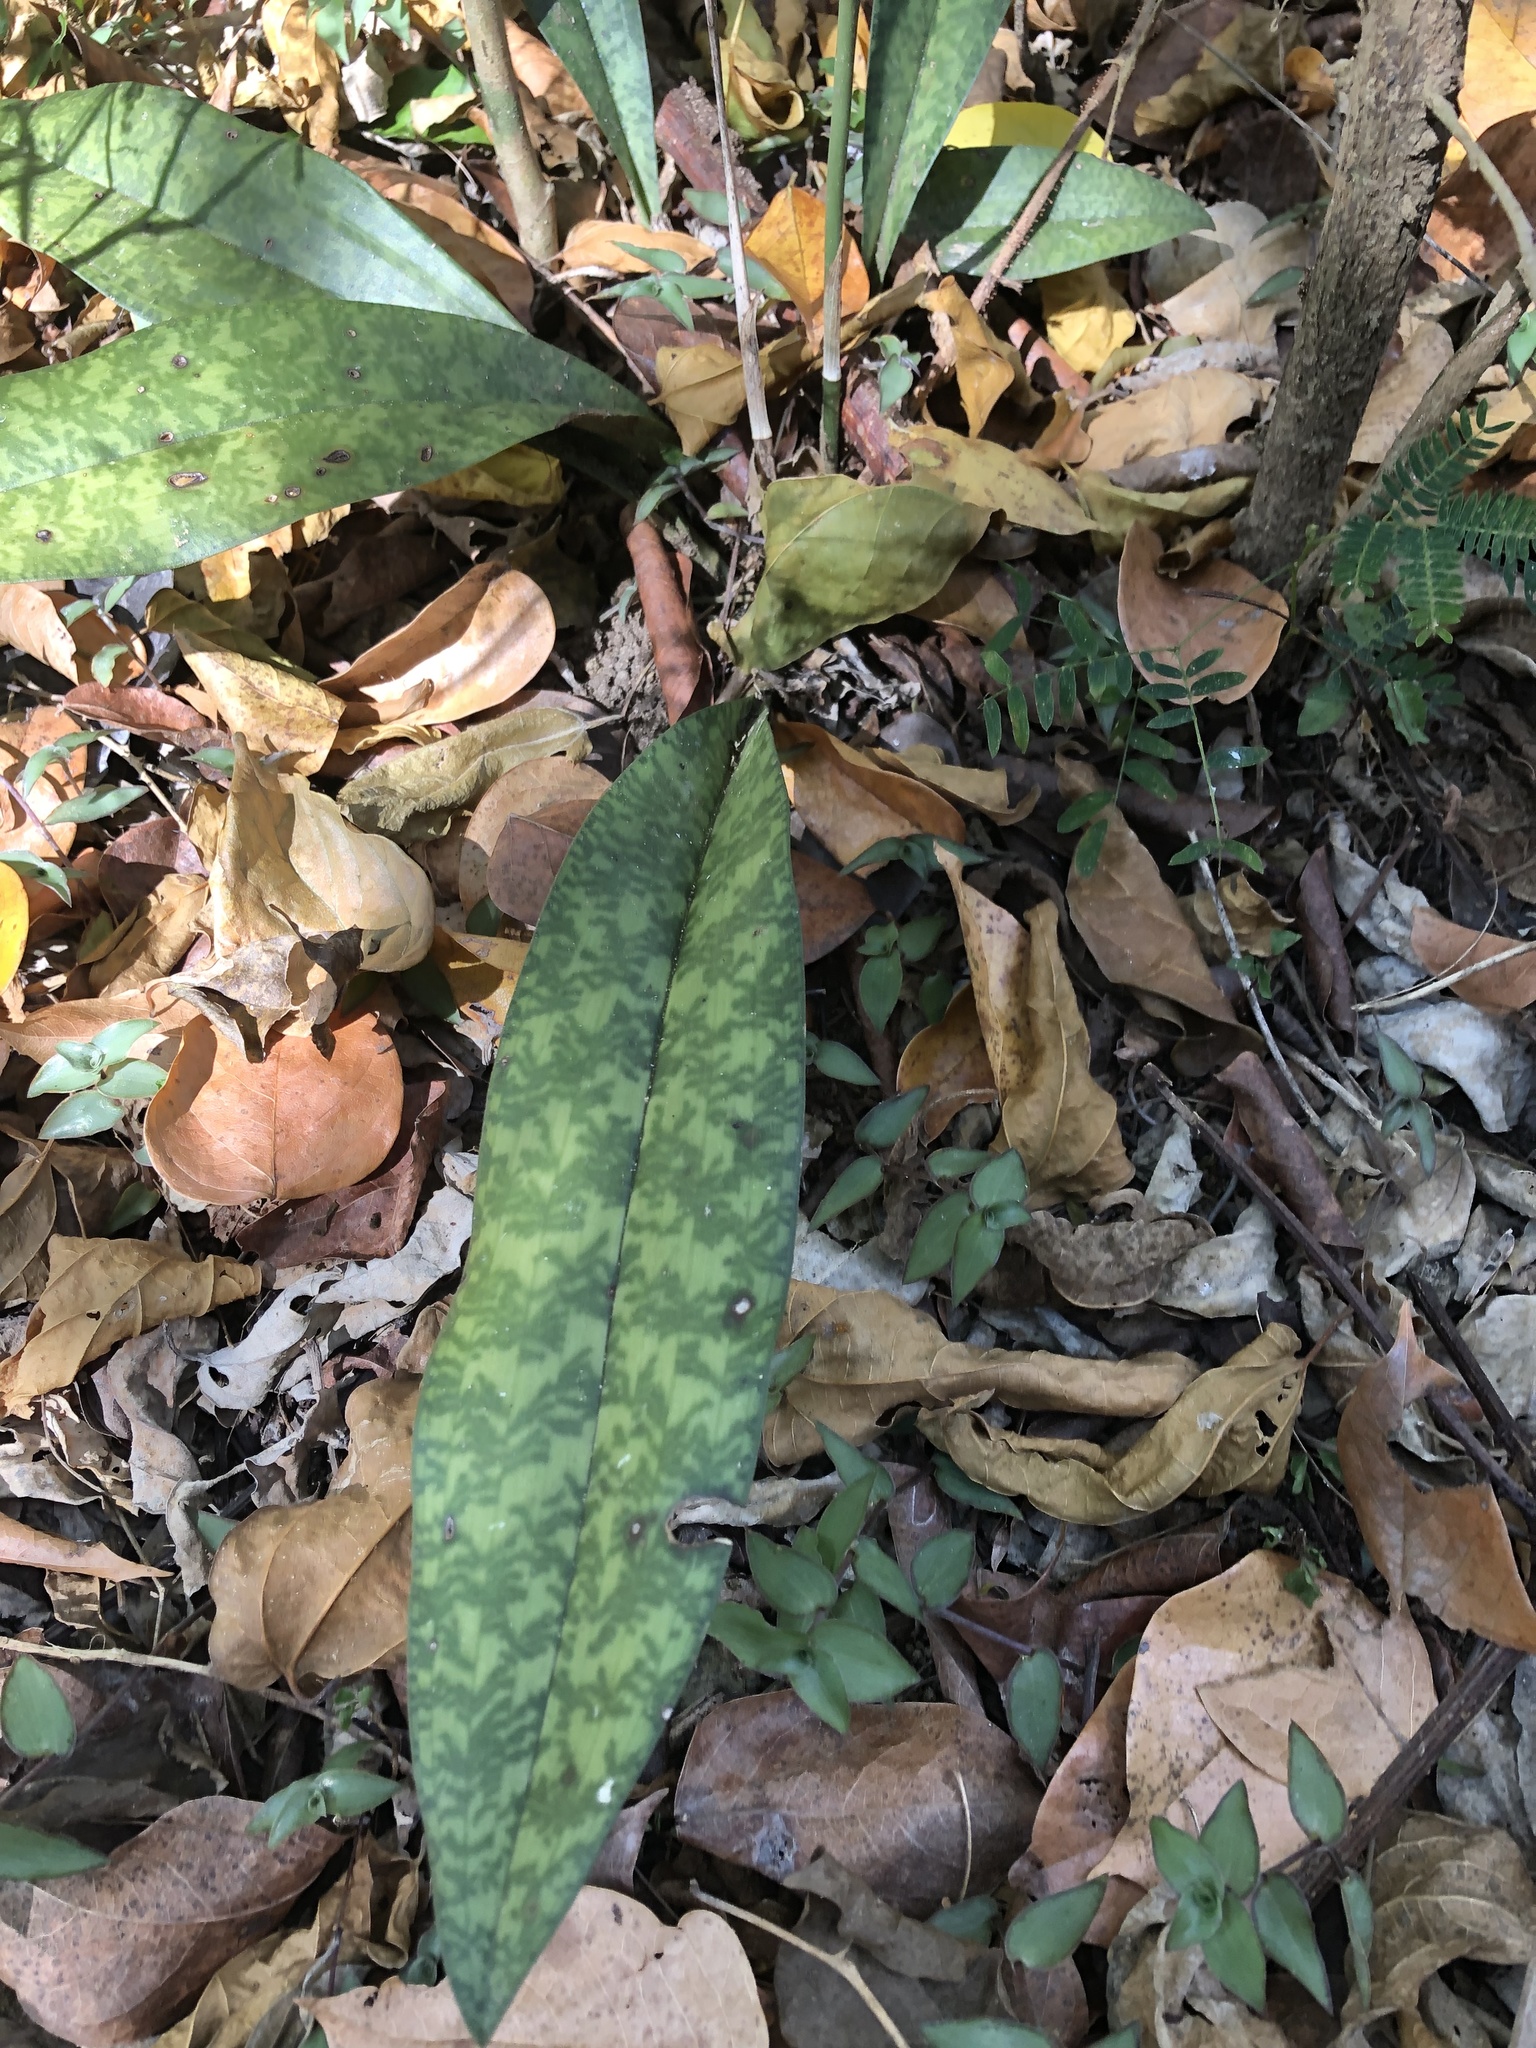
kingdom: Plantae
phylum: Tracheophyta
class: Liliopsida
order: Asparagales
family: Orchidaceae
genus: Eulophia
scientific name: Eulophia maculata
